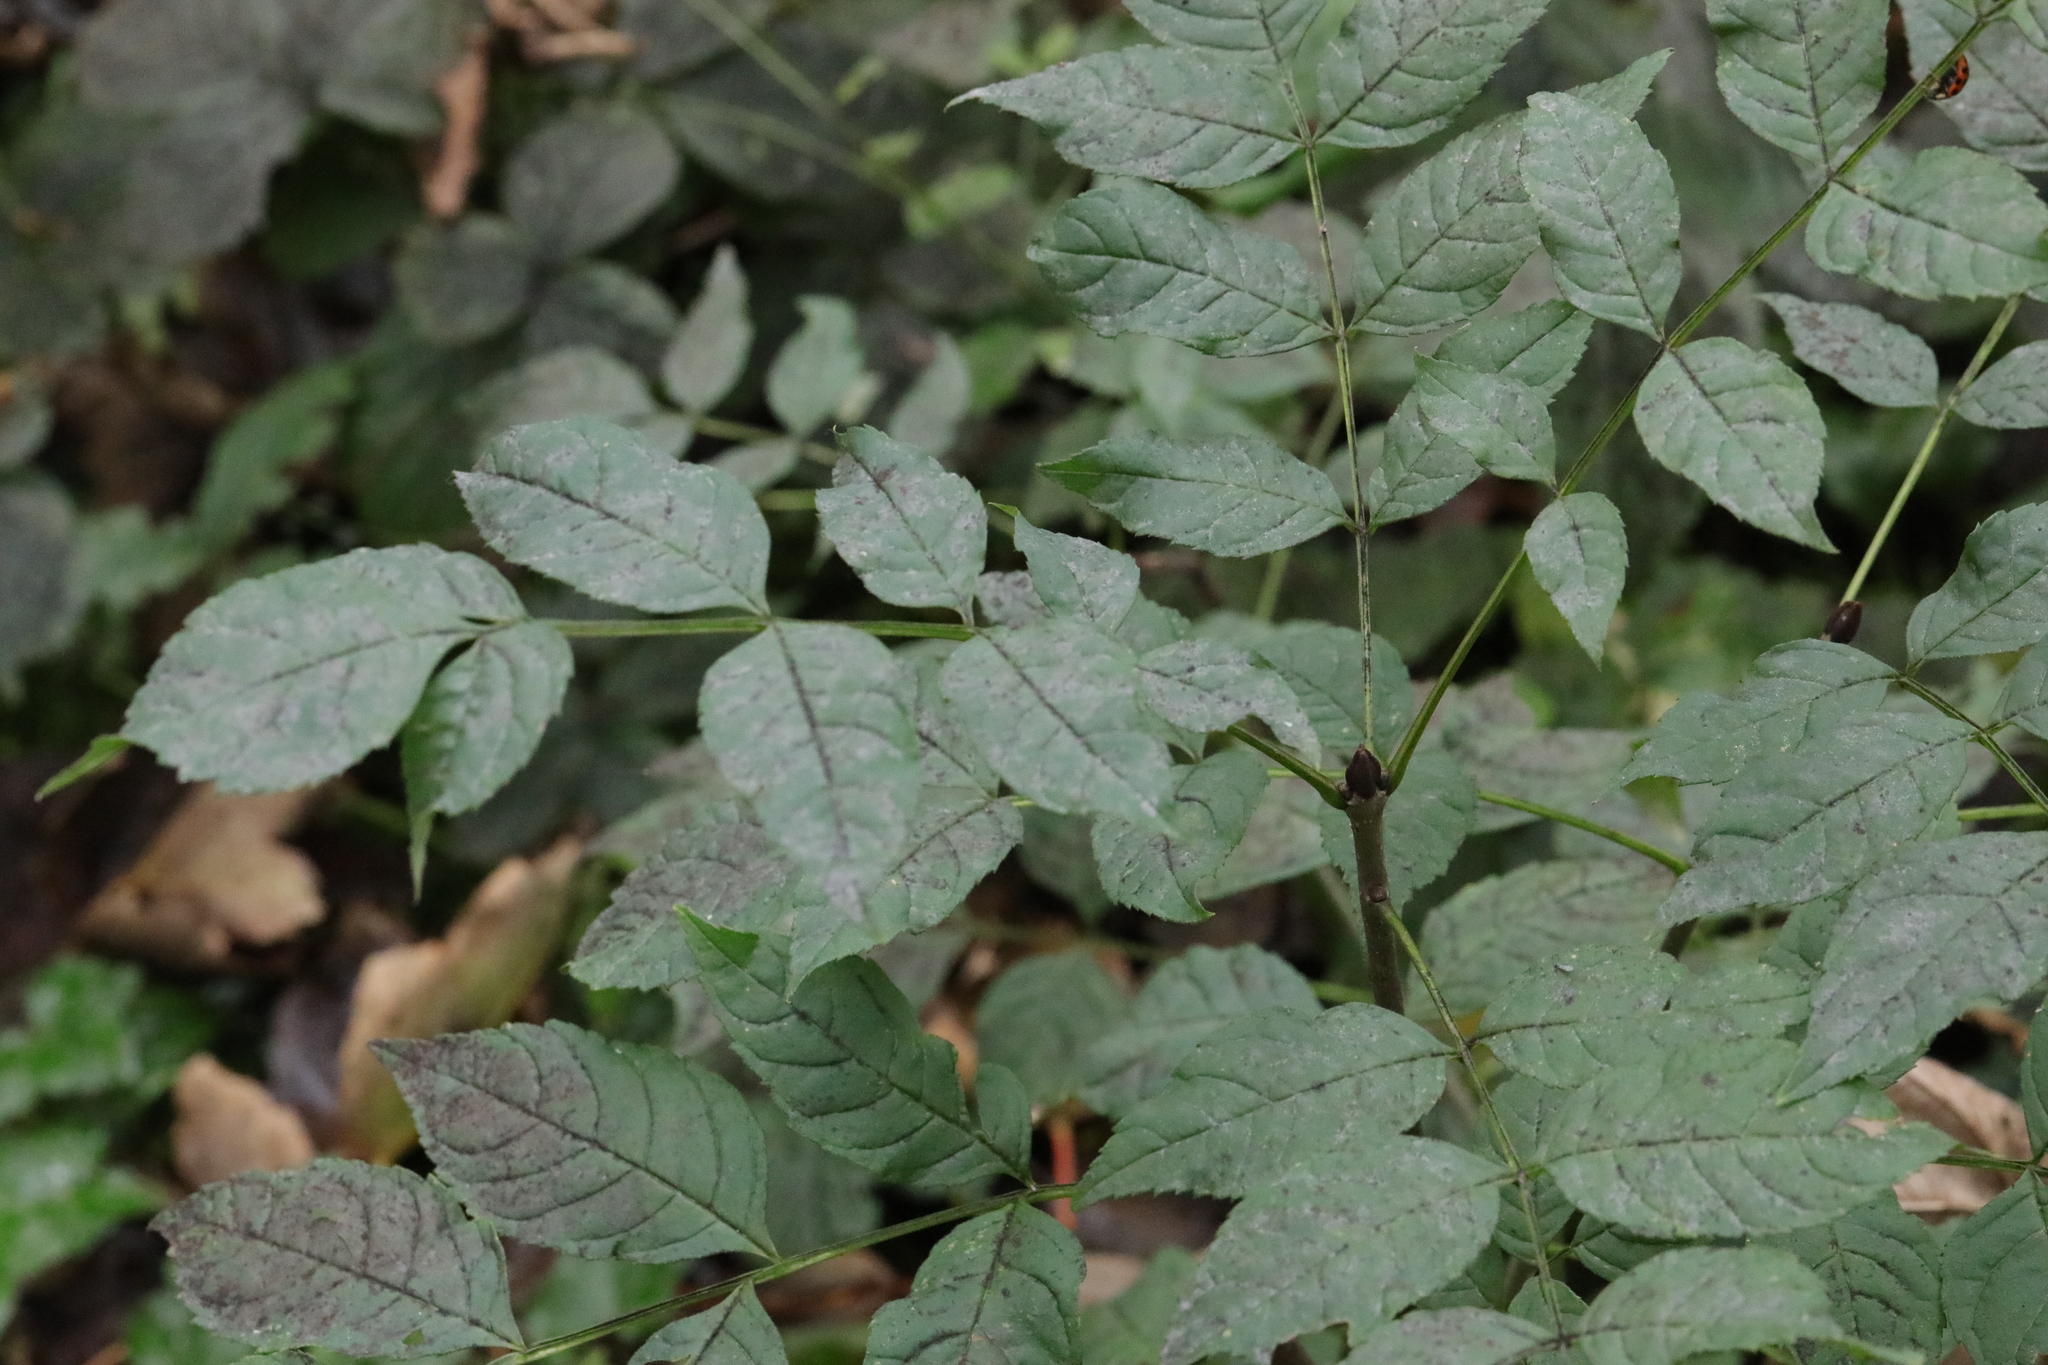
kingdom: Plantae
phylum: Tracheophyta
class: Magnoliopsida
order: Lamiales
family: Oleaceae
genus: Fraxinus
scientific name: Fraxinus excelsior
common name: European ash
